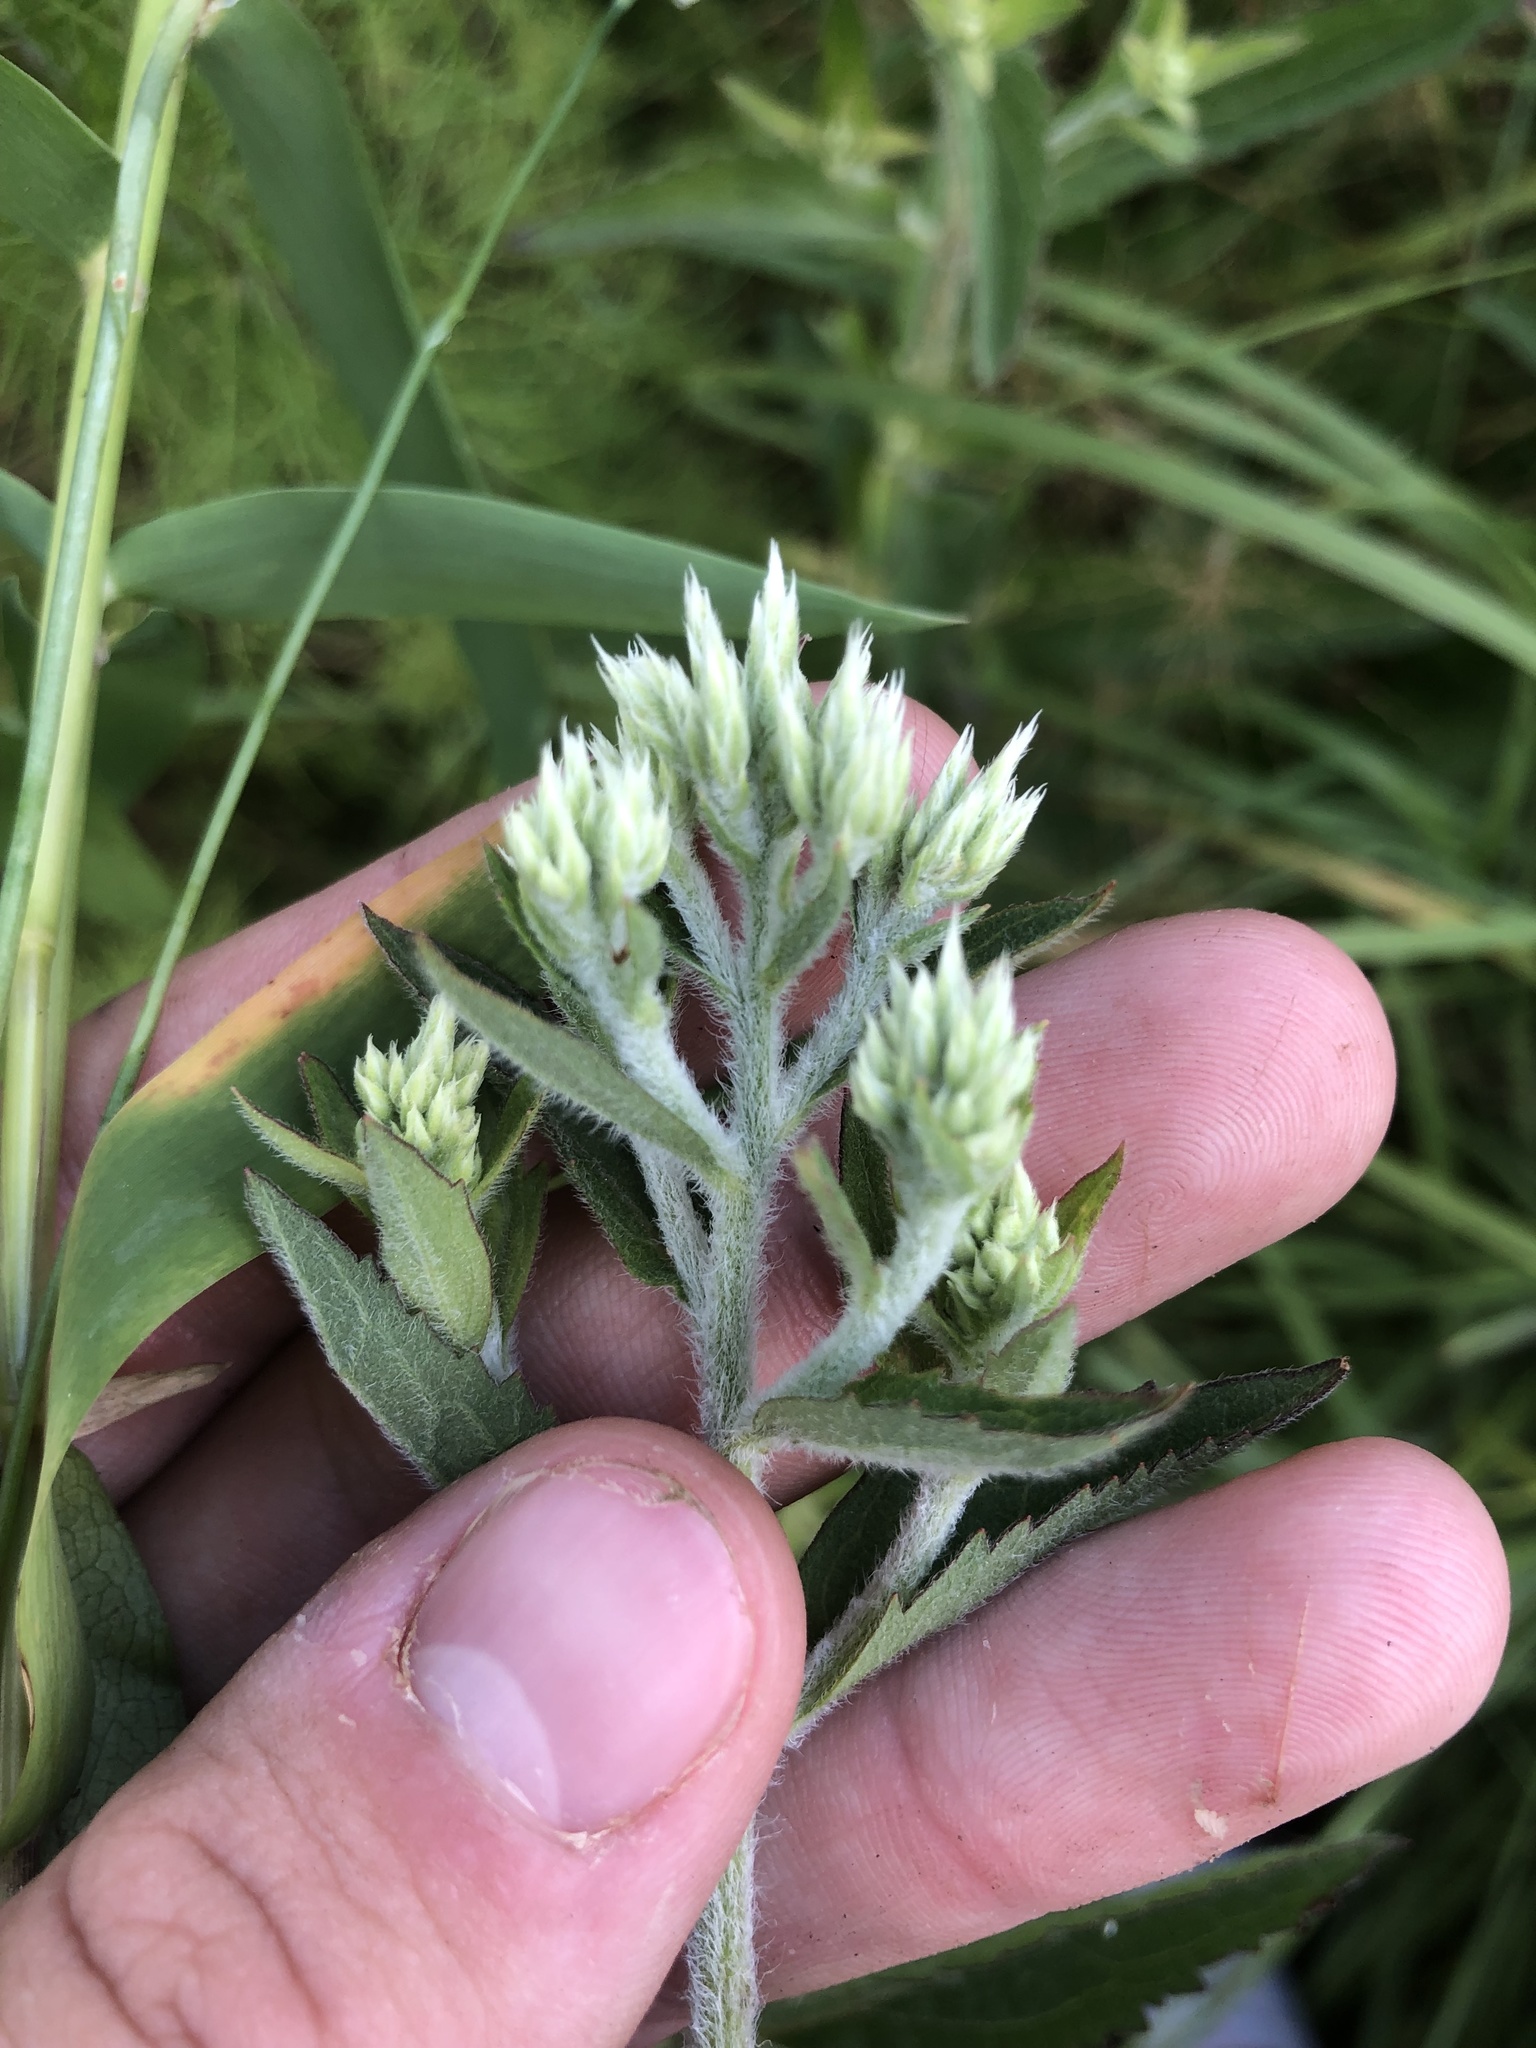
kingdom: Plantae
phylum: Tracheophyta
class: Magnoliopsida
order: Asterales
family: Asteraceae
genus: Eupatorium
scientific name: Eupatorium album
